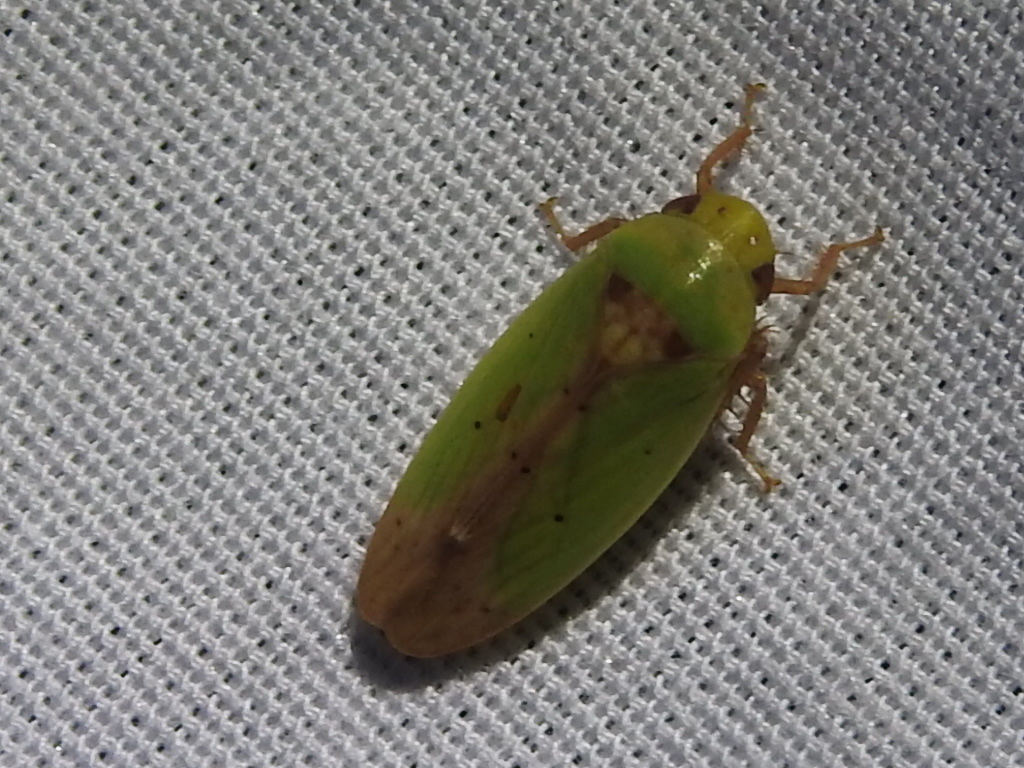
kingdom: Animalia
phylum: Arthropoda
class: Insecta
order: Hemiptera
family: Cicadellidae
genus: Ponana
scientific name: Ponana
